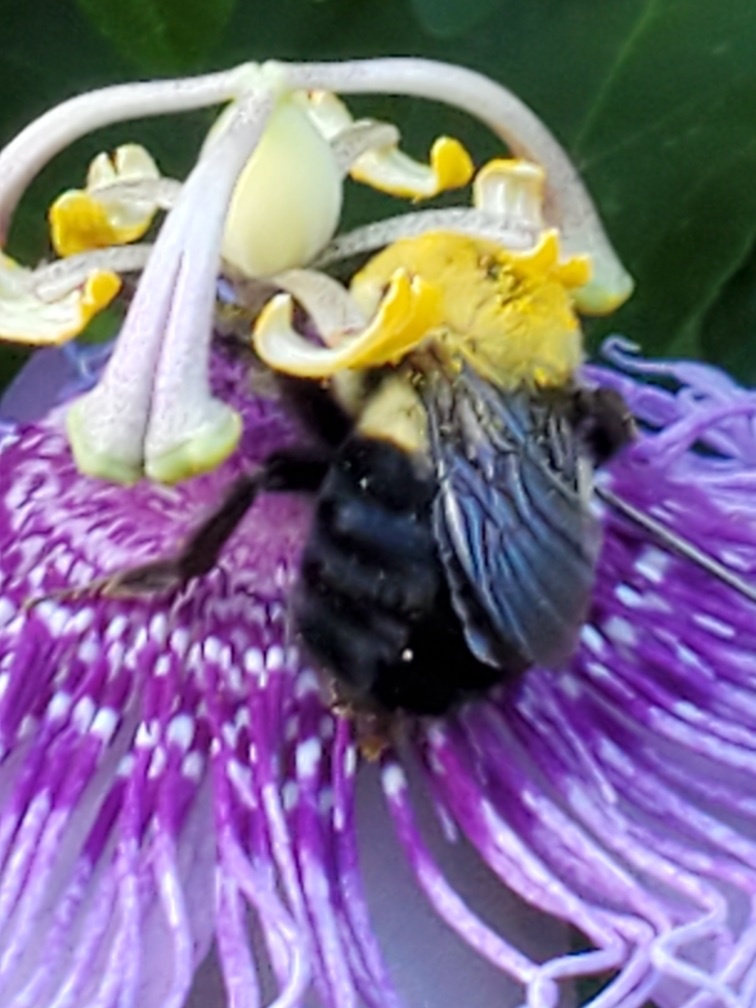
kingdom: Animalia
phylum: Arthropoda
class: Insecta
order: Hymenoptera
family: Apidae
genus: Bombus
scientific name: Bombus griseocollis
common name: Brown-belted bumble bee
